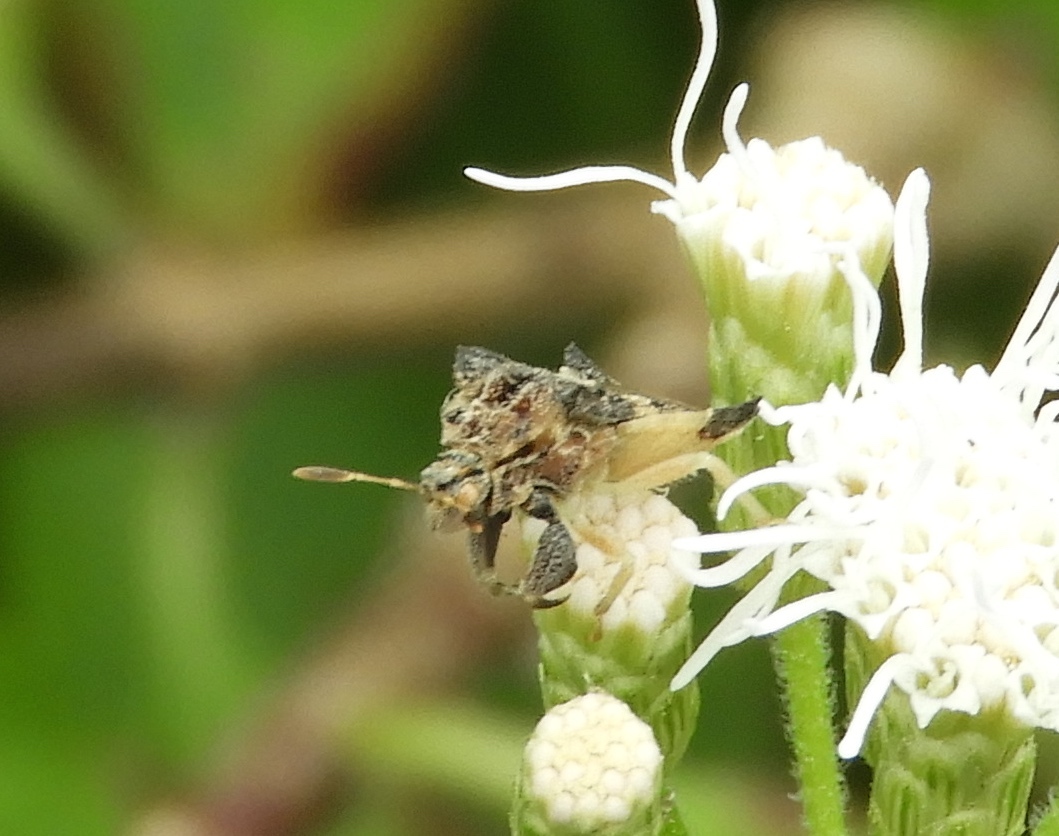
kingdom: Animalia
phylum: Arthropoda
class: Insecta
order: Hemiptera
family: Reduviidae
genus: Phymata
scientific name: Phymata granulosa
